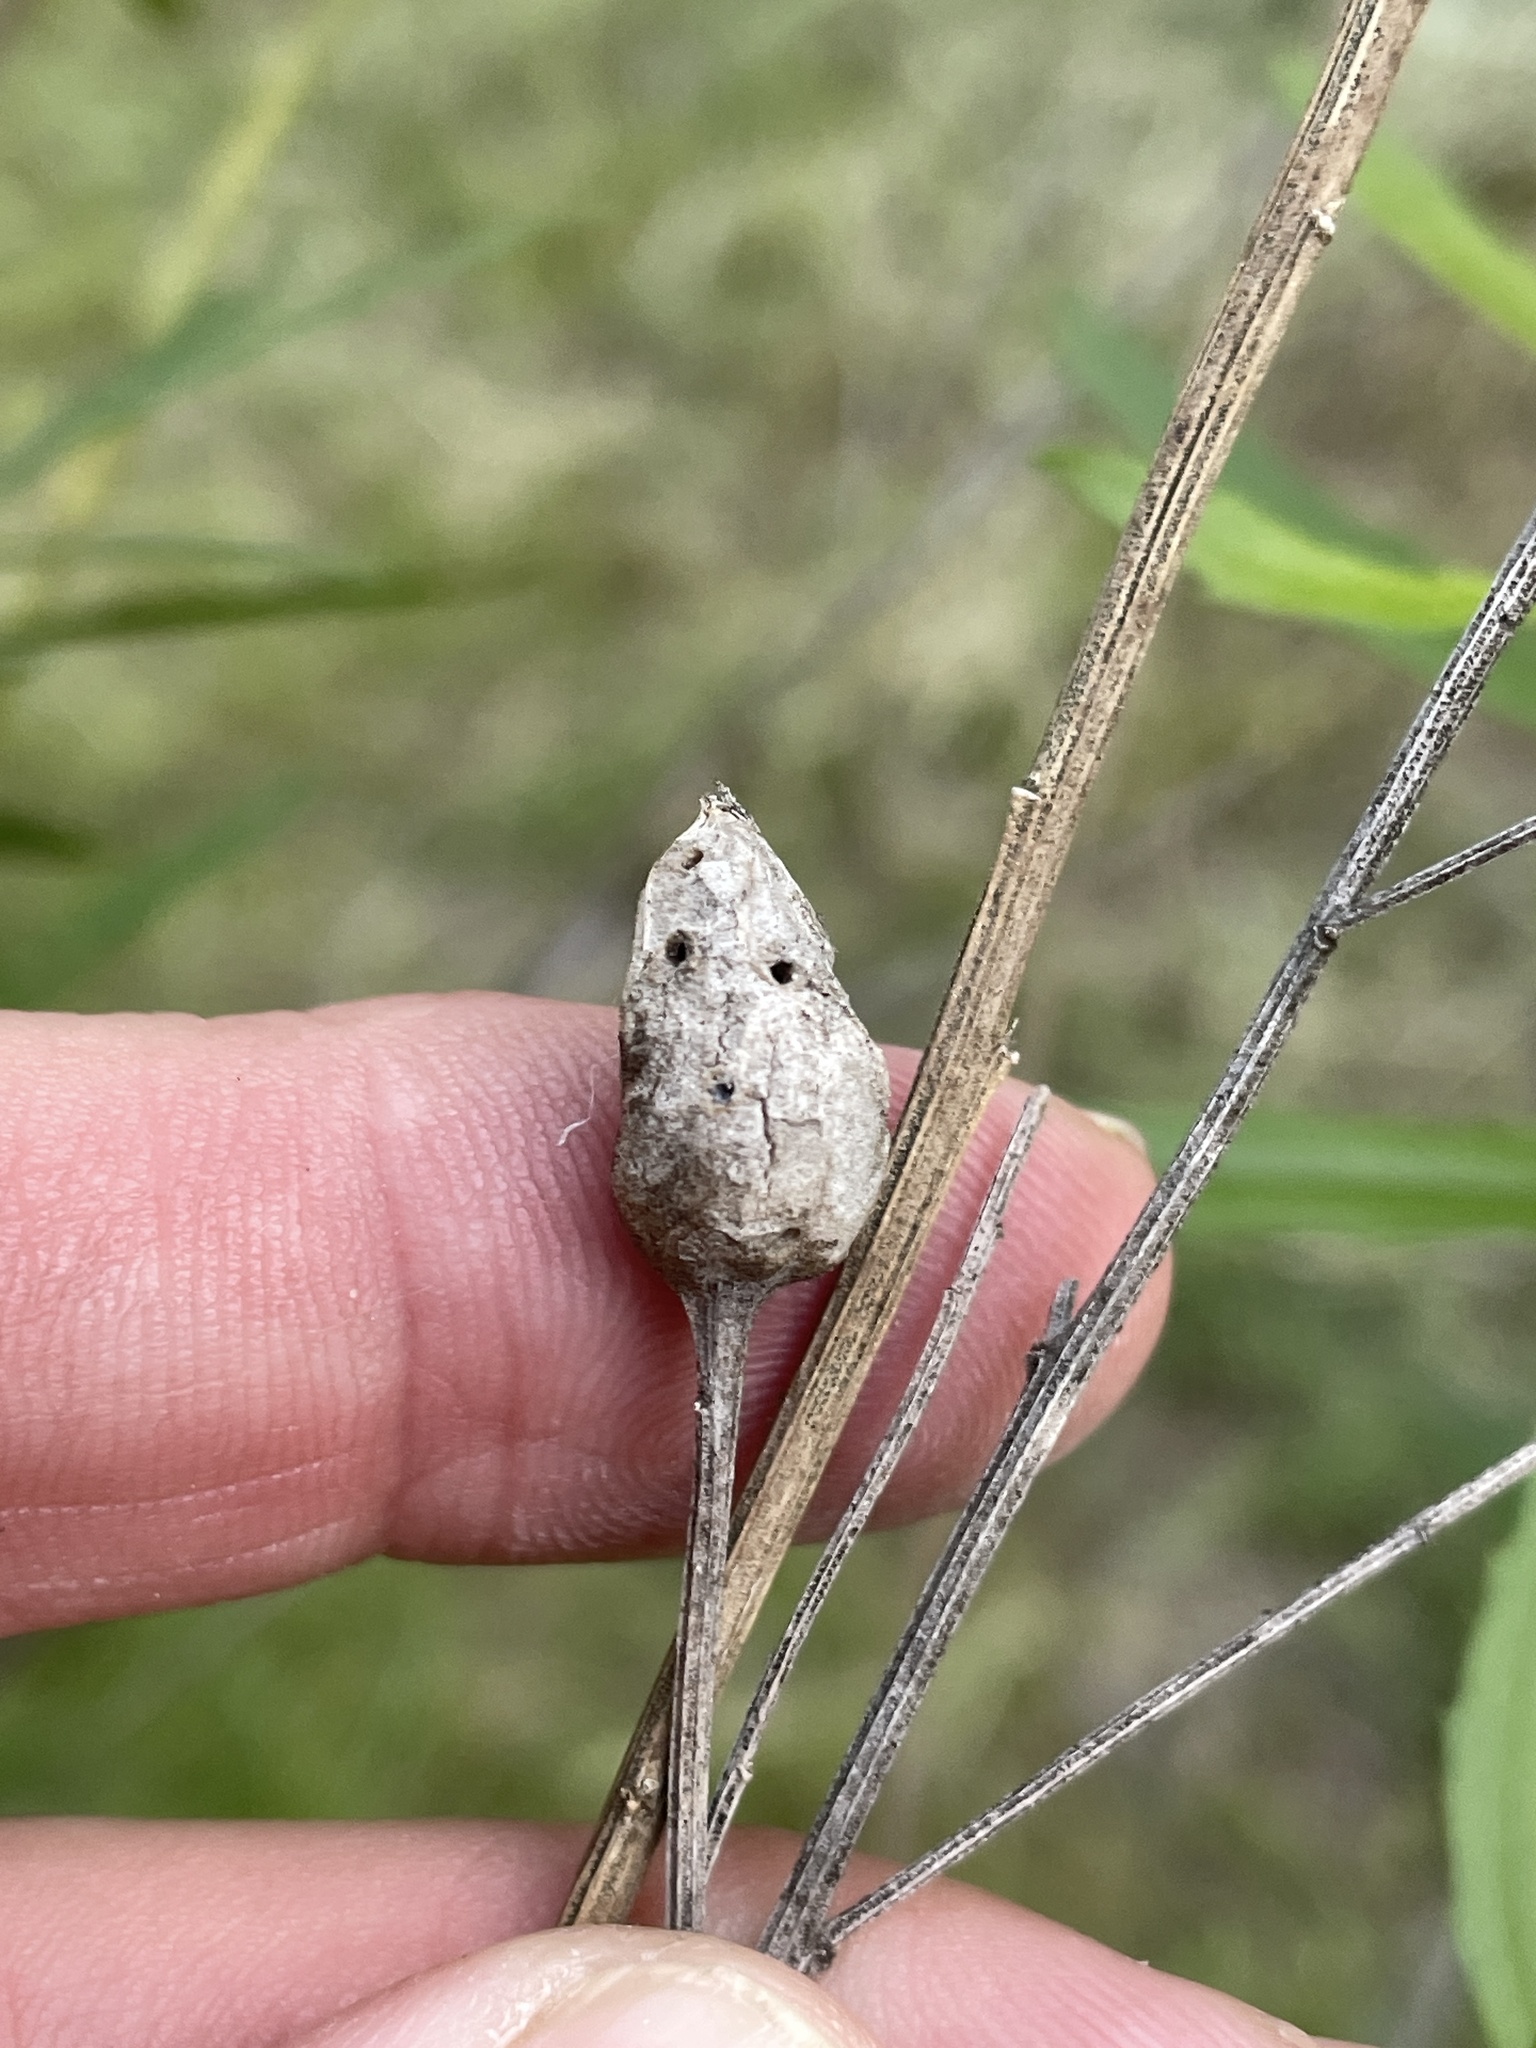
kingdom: Animalia
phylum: Arthropoda
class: Insecta
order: Diptera
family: Cecidomyiidae
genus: Neolasioptera
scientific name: Neolasioptera lathami
